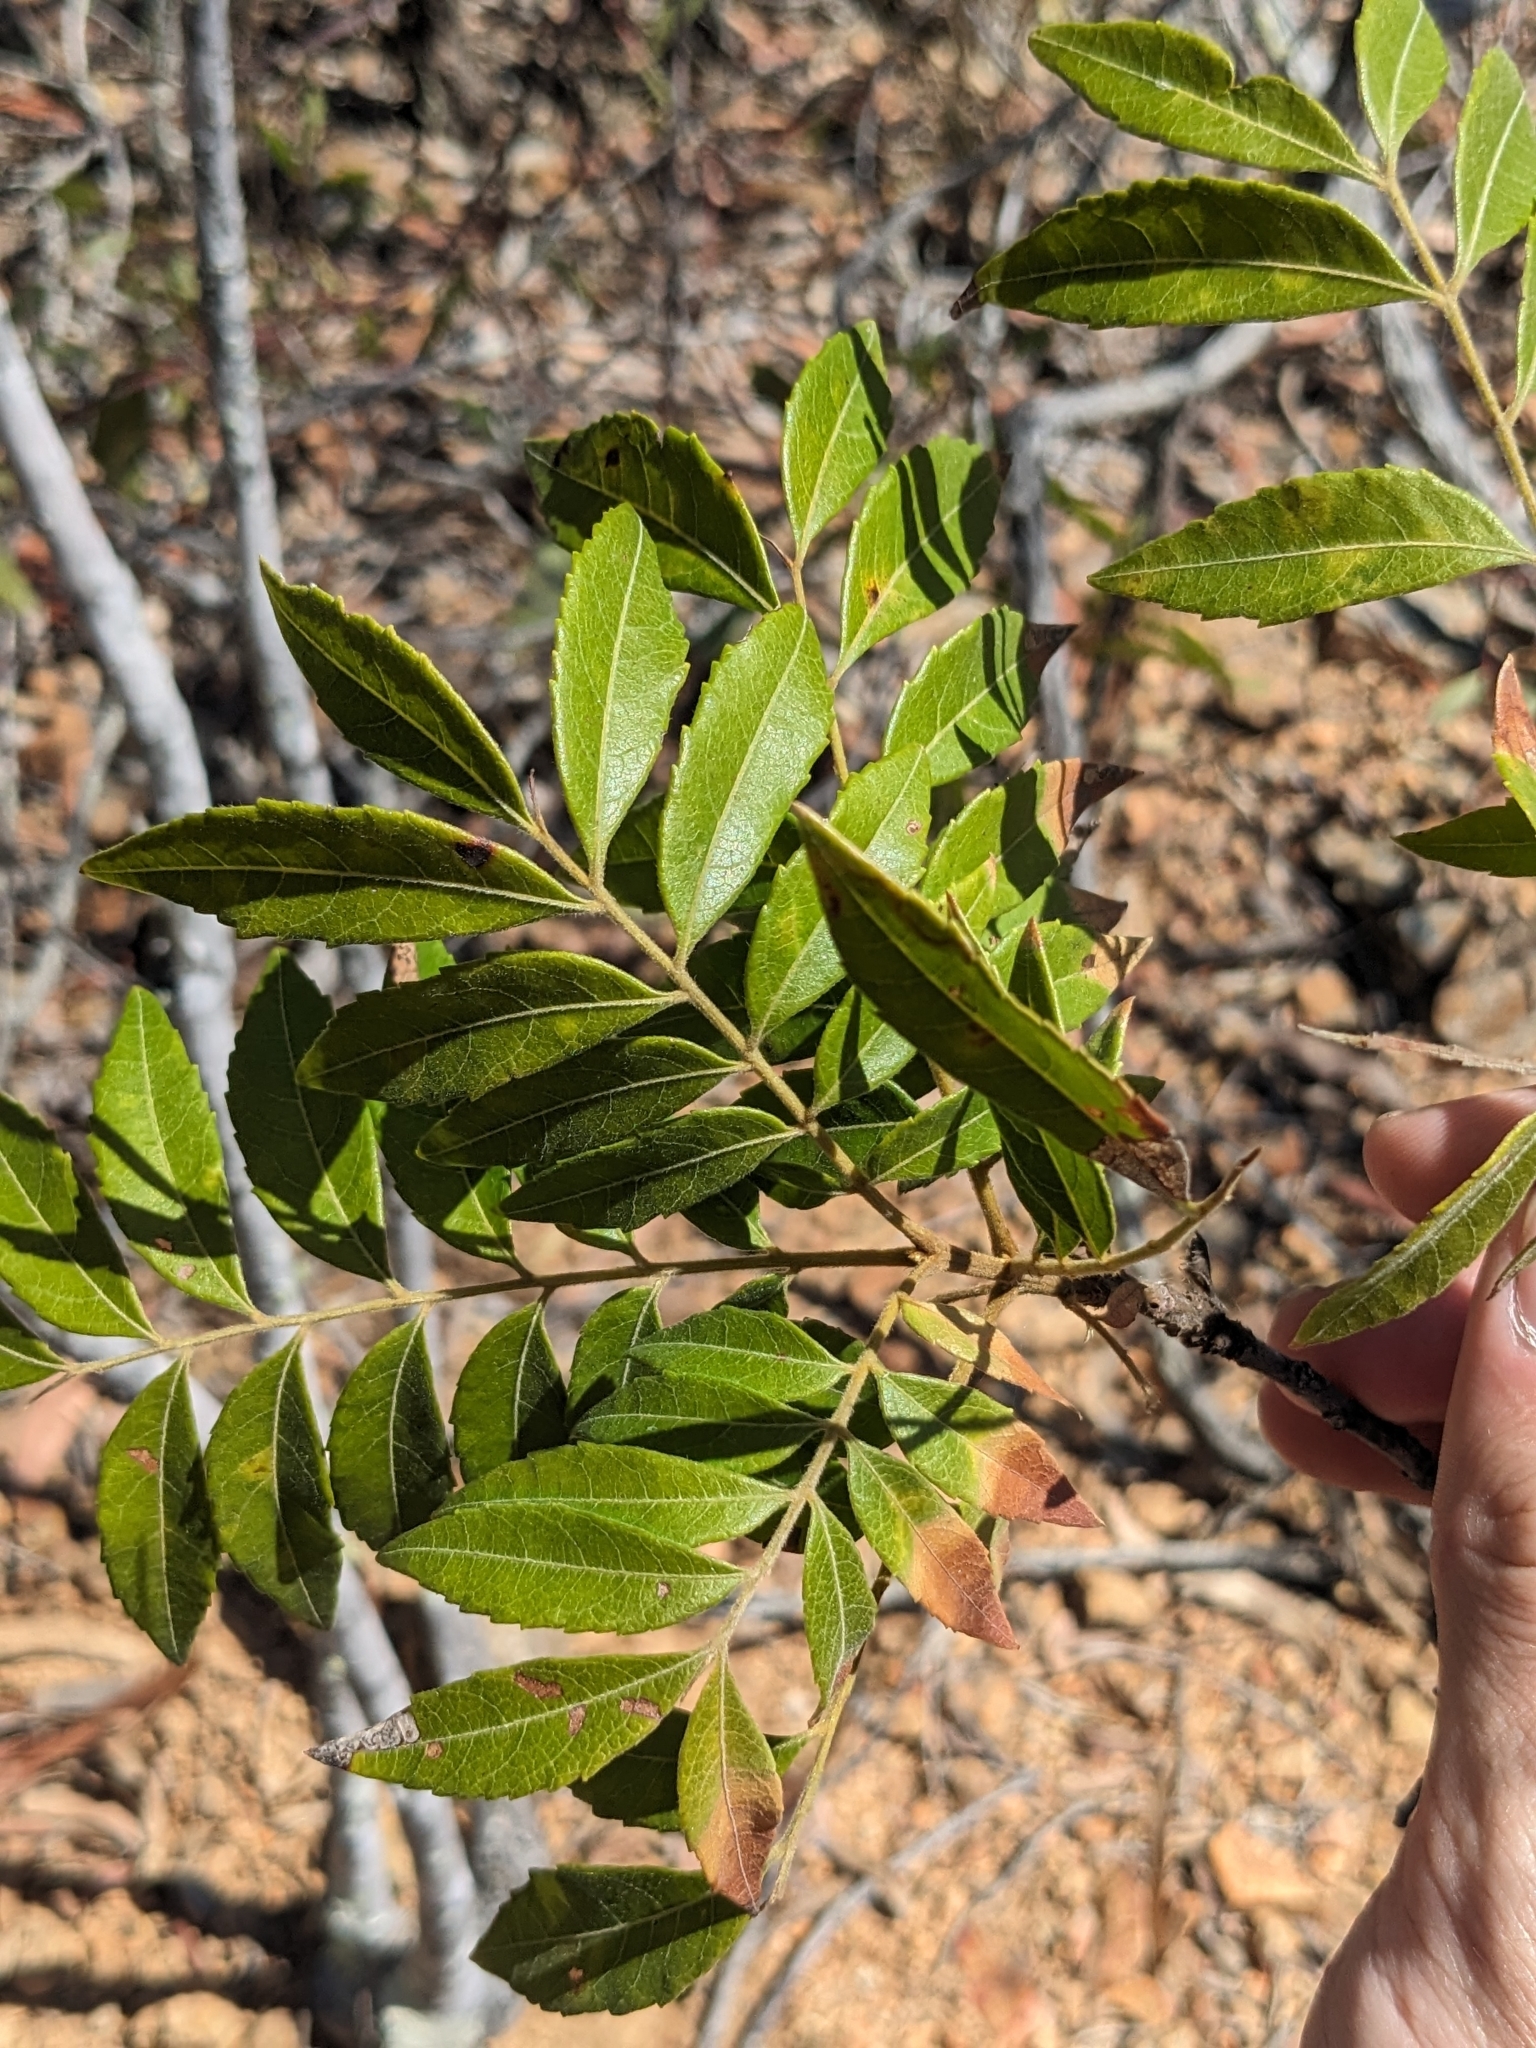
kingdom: Plantae
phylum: Tracheophyta
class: Magnoliopsida
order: Sapindales
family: Sapindaceae
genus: Jagera
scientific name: Jagera pseudorhus
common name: Fern-leaf-tamarind
